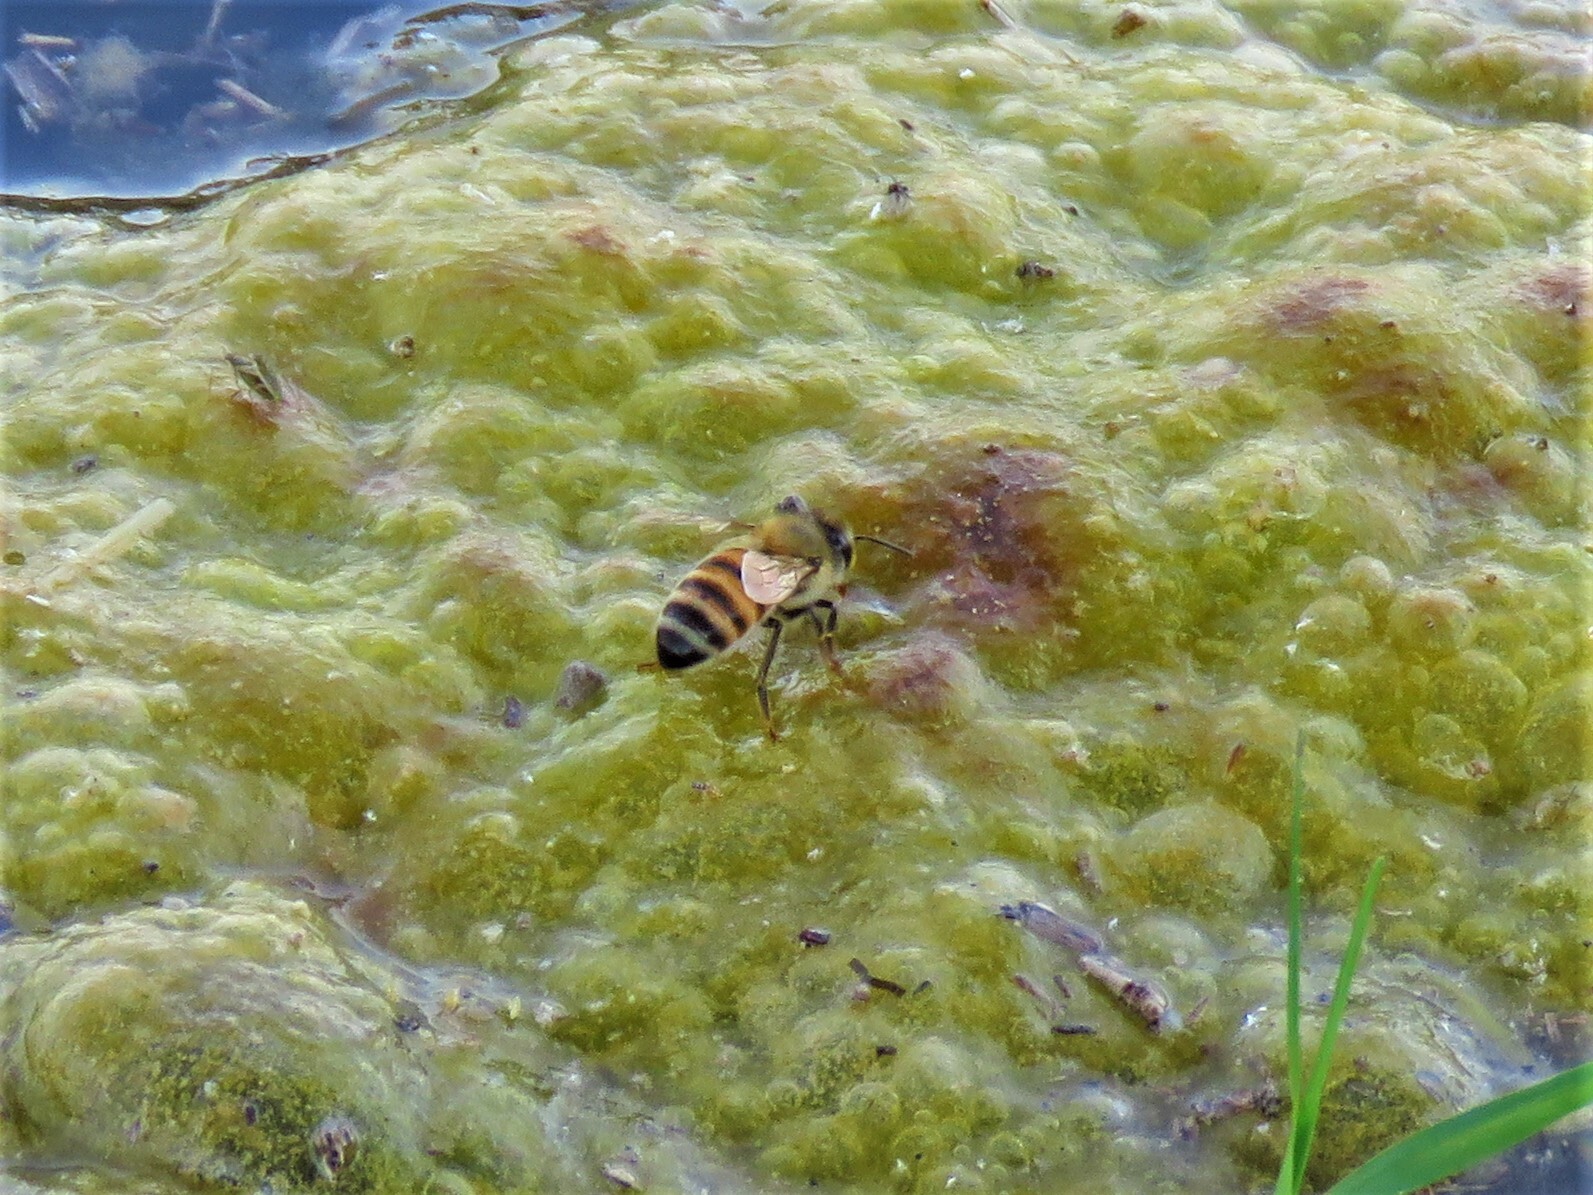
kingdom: Animalia
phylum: Arthropoda
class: Insecta
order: Hymenoptera
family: Apidae
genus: Apis
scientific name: Apis mellifera
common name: Honey bee
